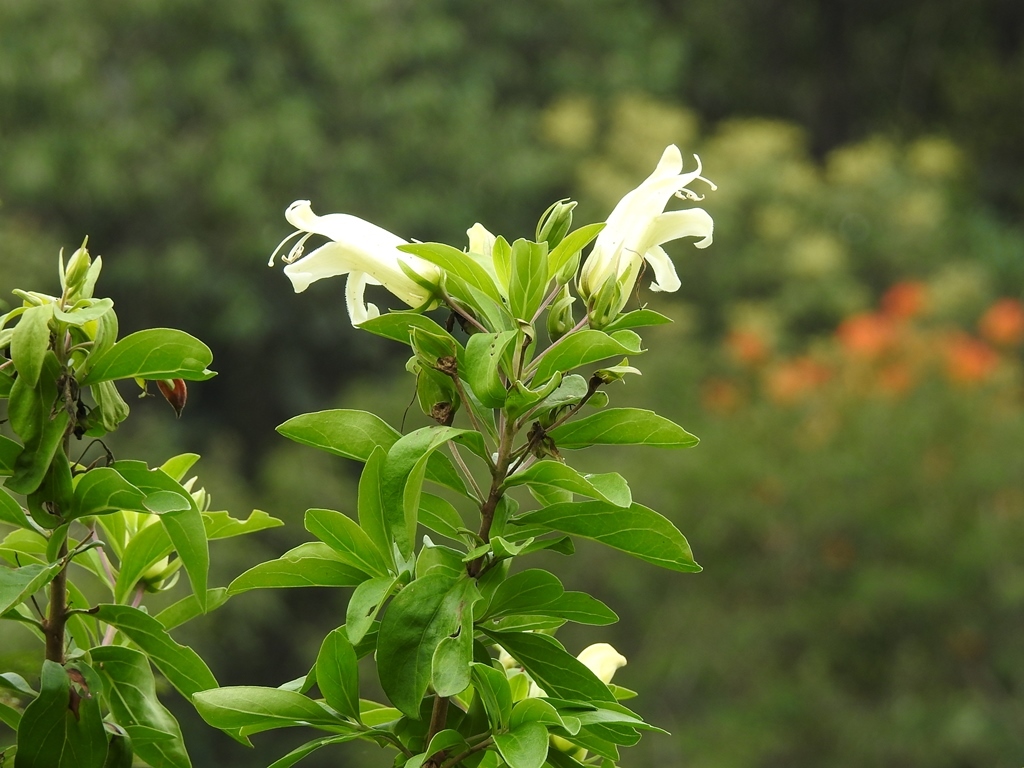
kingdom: Plantae
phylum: Tracheophyta
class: Magnoliopsida
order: Lamiales
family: Scrophulariaceae
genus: Eremogeton
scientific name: Eremogeton grandiflorus
